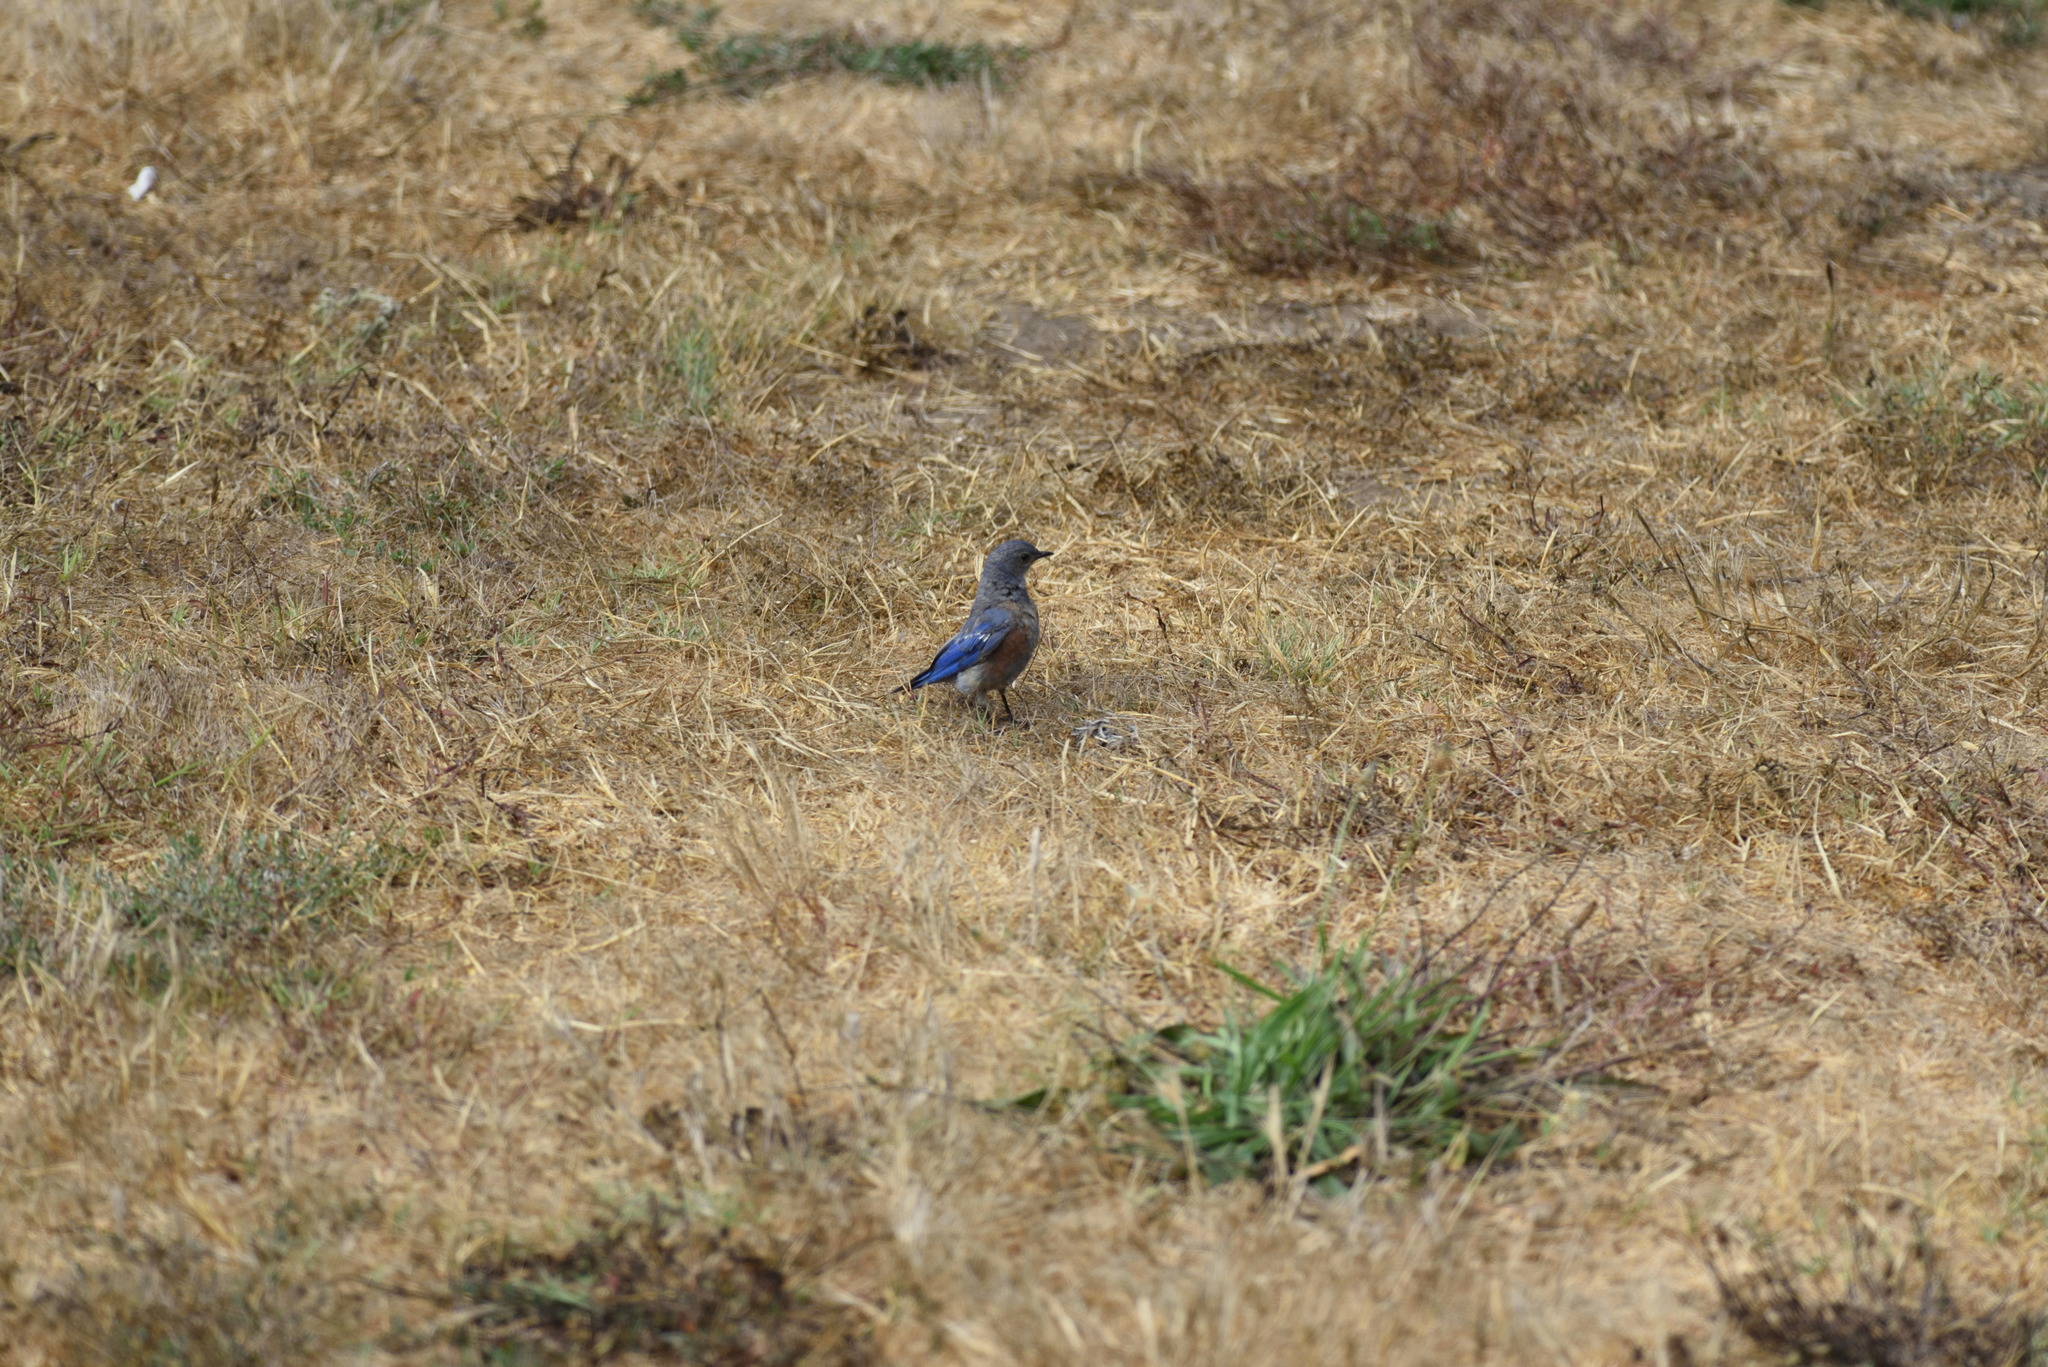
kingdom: Animalia
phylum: Chordata
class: Aves
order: Passeriformes
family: Turdidae
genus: Sialia
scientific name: Sialia mexicana
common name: Western bluebird
